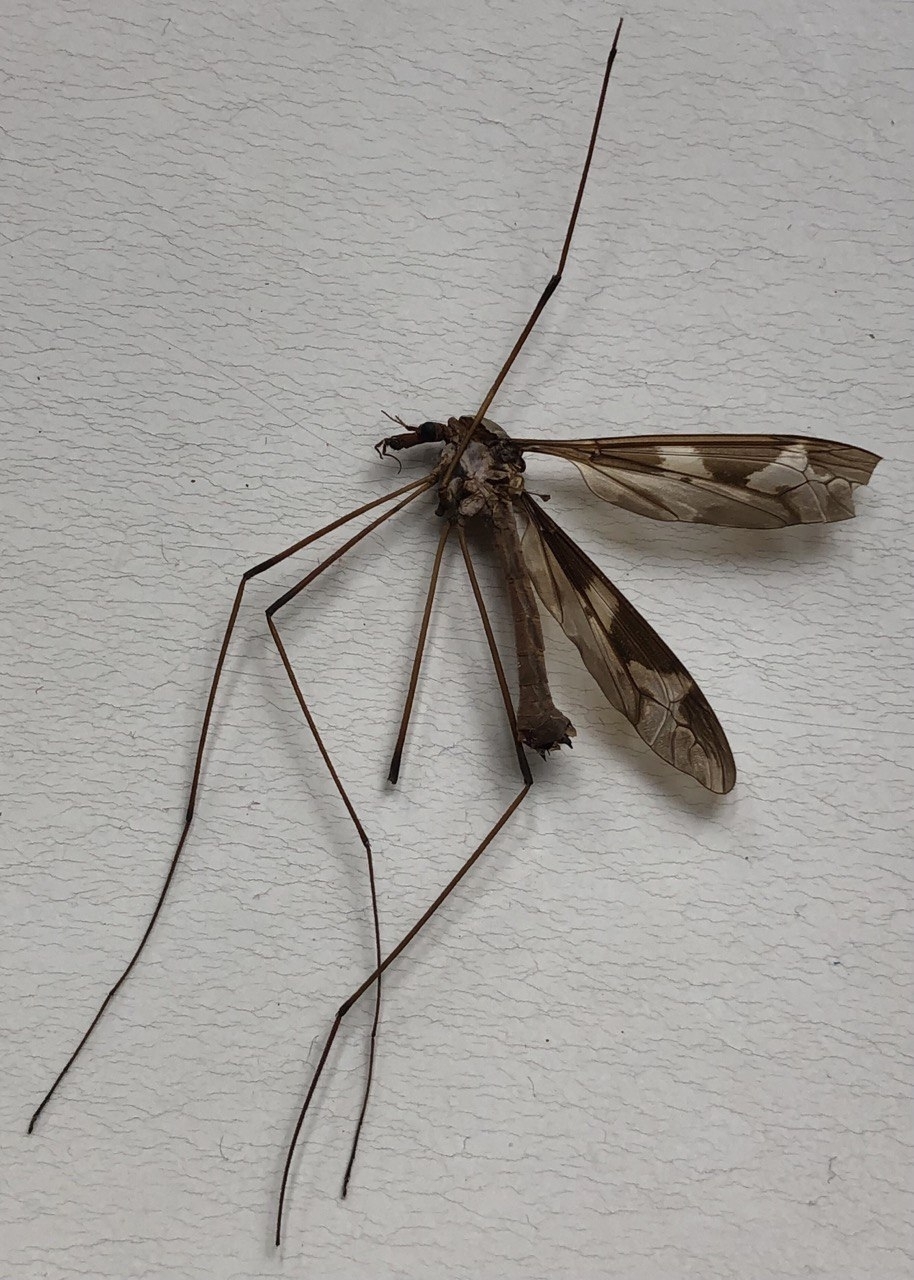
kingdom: Animalia
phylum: Arthropoda
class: Insecta
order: Diptera
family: Tipulidae
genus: Tipula
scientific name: Tipula maxima
